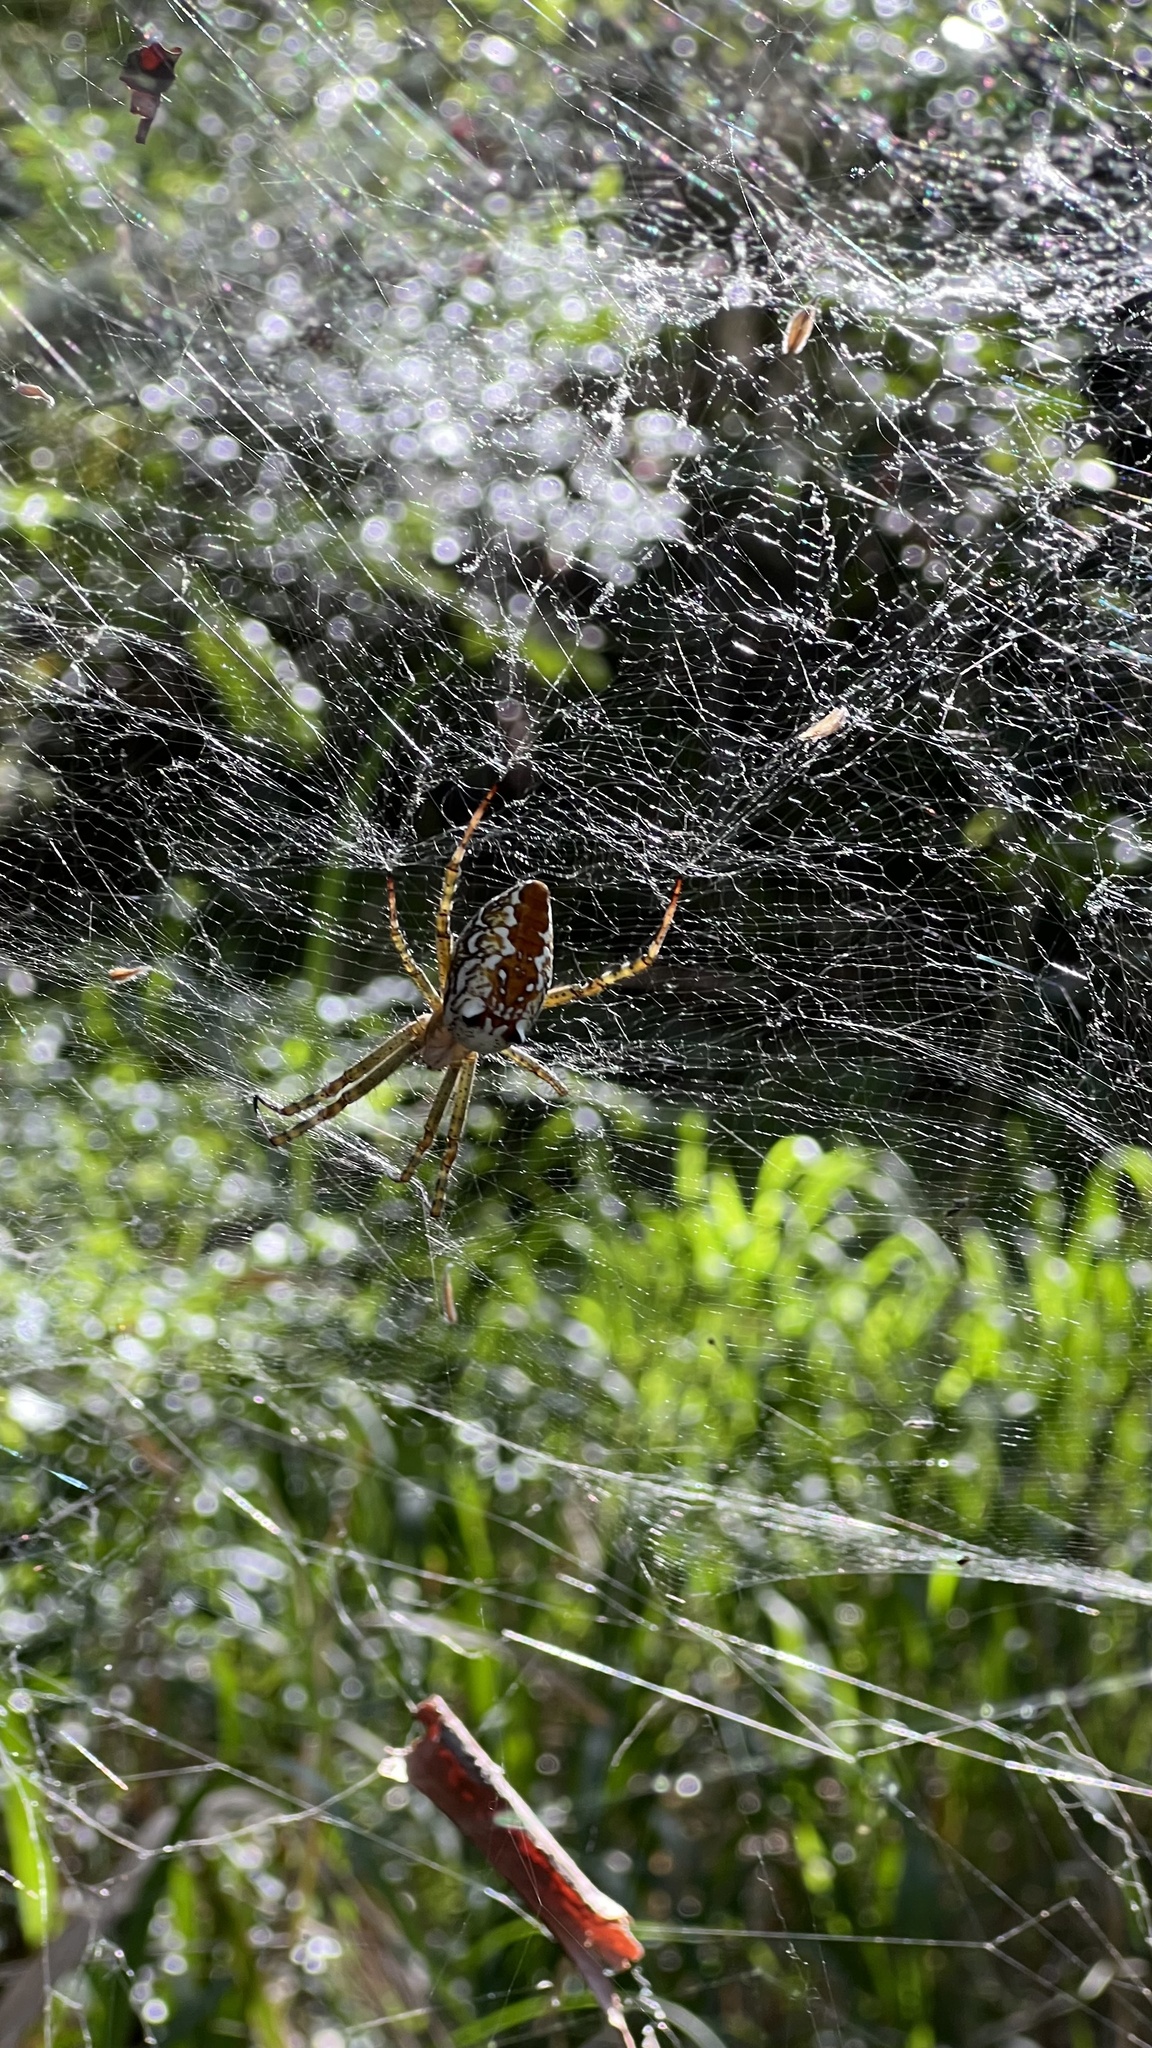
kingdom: Chromista
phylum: Ochrophyta
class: Dictyochophyceae
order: Pedinellales
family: Cyrtophoraceae
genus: Cyrtophora
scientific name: Cyrtophora moluccensis
